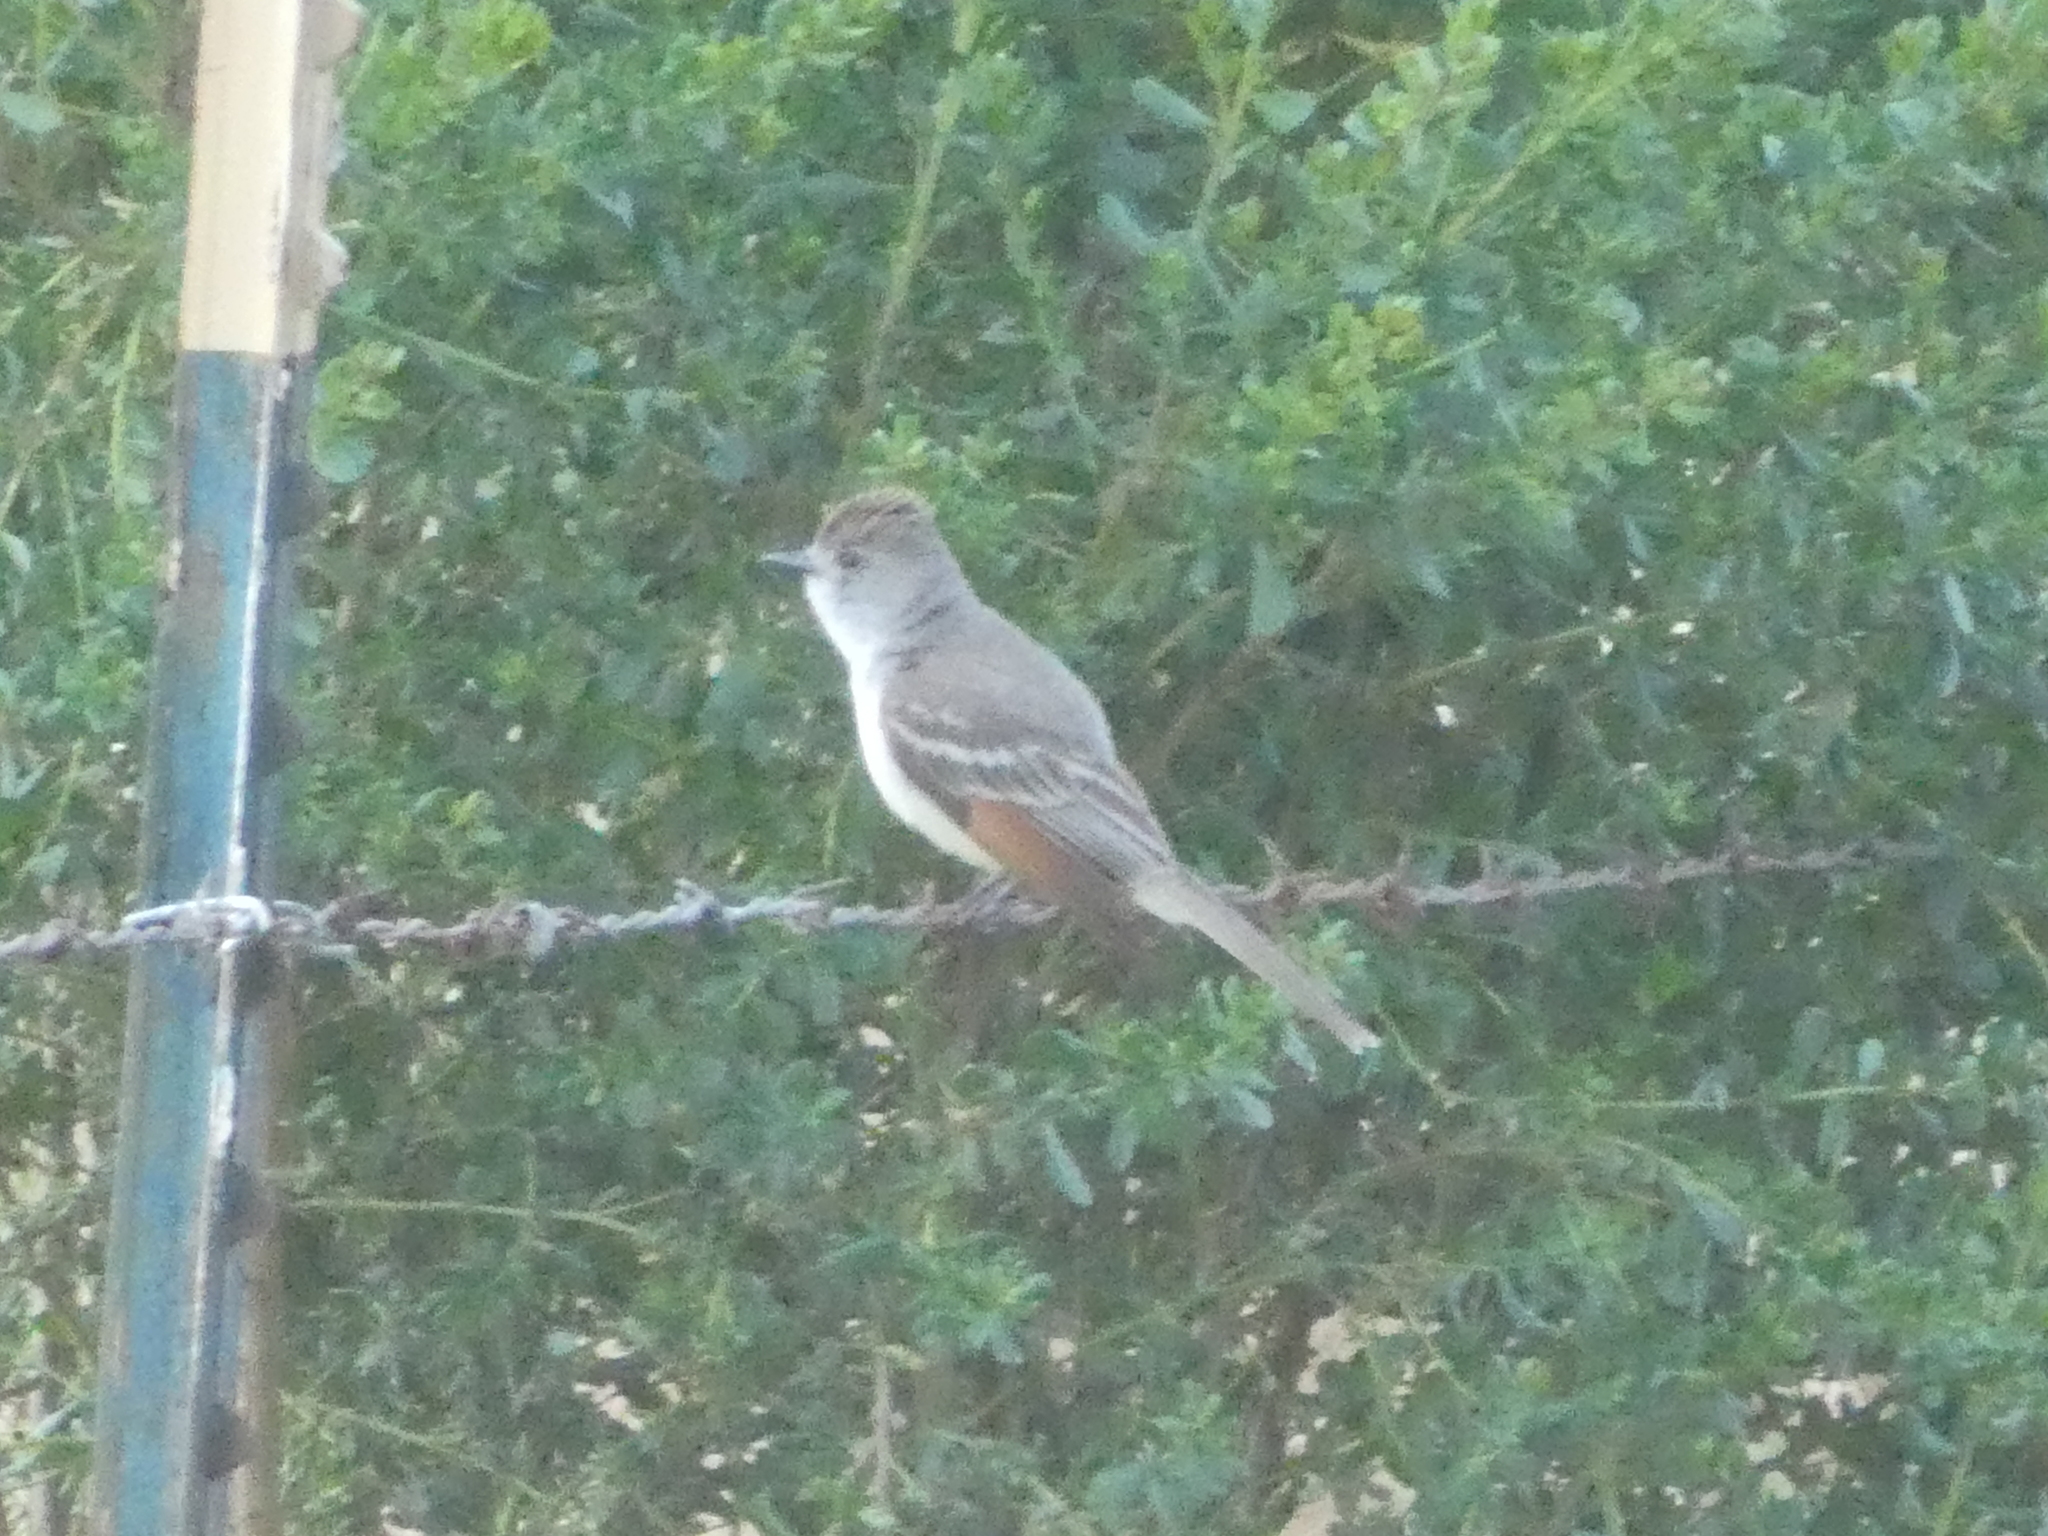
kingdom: Animalia
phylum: Chordata
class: Aves
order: Passeriformes
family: Tyrannidae
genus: Myiarchus
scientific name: Myiarchus cinerascens
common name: Ash-throated flycatcher
